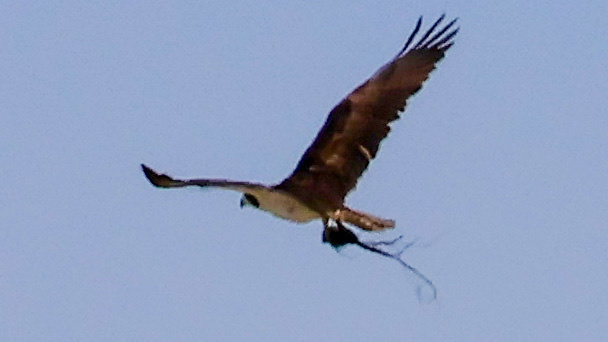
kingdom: Animalia
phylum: Chordata
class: Aves
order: Accipitriformes
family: Pandionidae
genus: Pandion
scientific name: Pandion haliaetus
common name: Osprey
